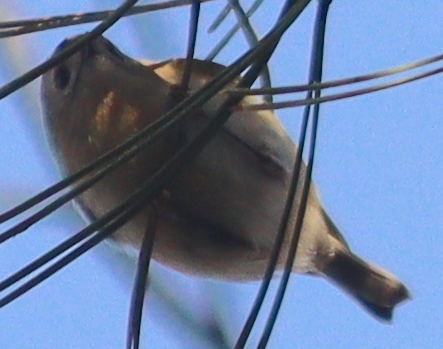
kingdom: Animalia
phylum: Chordata
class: Aves
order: Passeriformes
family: Regulidae
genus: Regulus
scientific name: Regulus regulus
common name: Goldcrest
